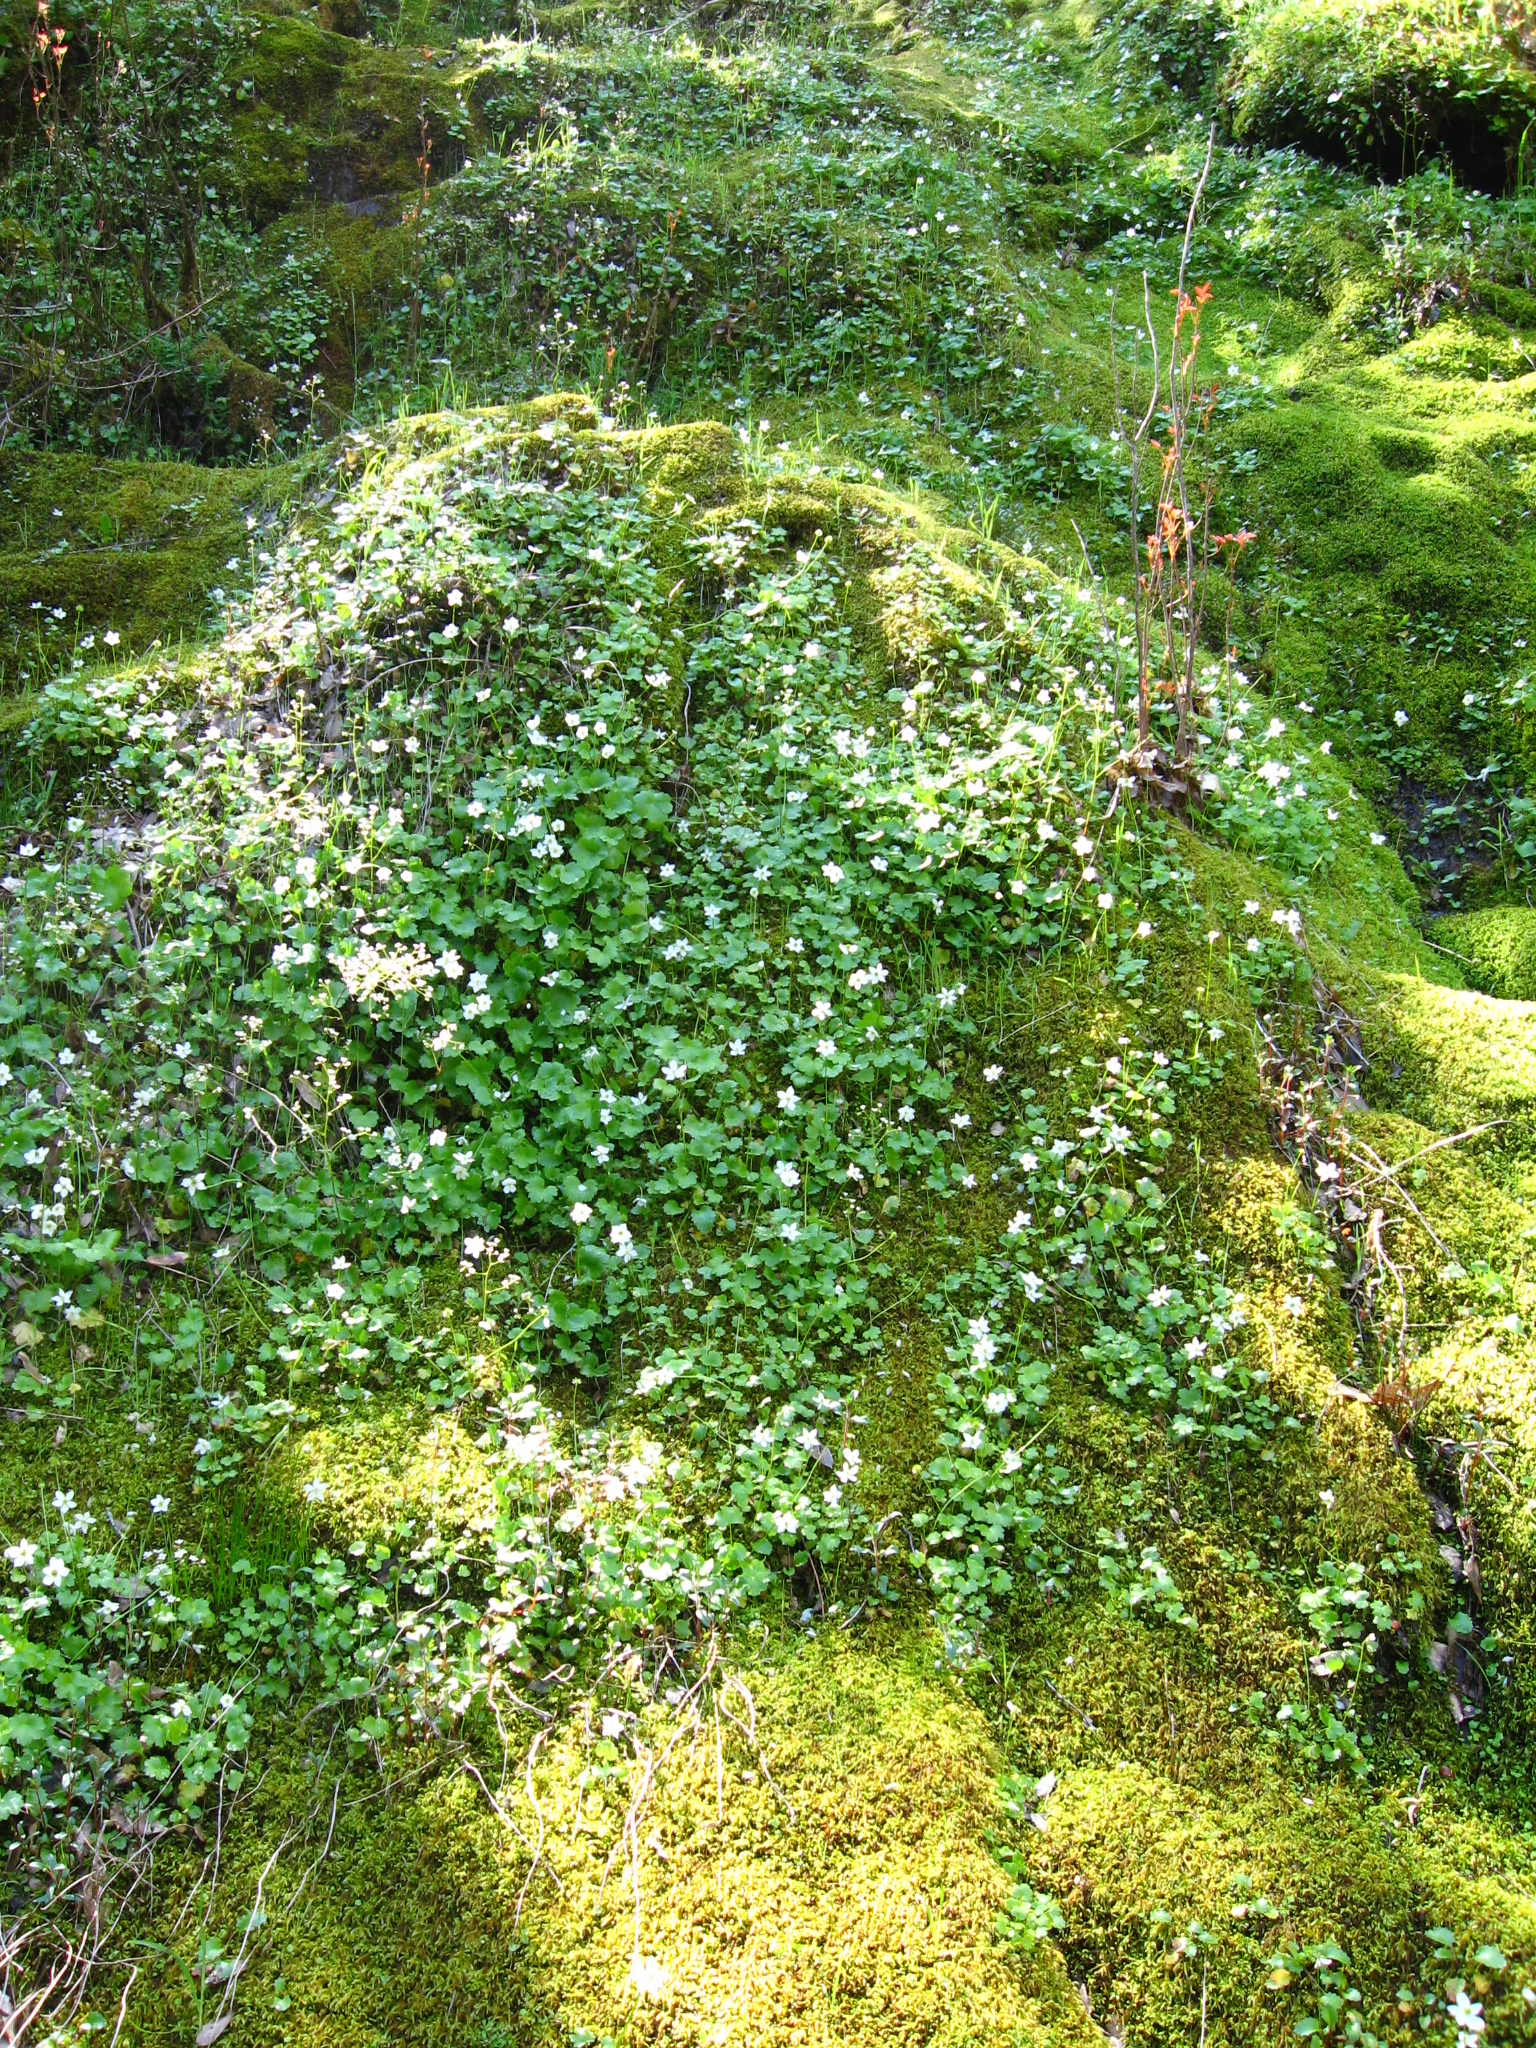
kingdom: Plantae
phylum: Tracheophyta
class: Magnoliopsida
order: Ranunculales
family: Ranunculaceae
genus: Kumlienia
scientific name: Kumlienia hystricula
